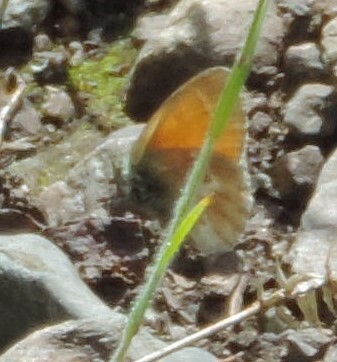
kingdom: Animalia
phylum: Arthropoda
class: Insecta
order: Lepidoptera
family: Nymphalidae
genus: Coenonympha
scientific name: Coenonympha california
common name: Common ringlet
